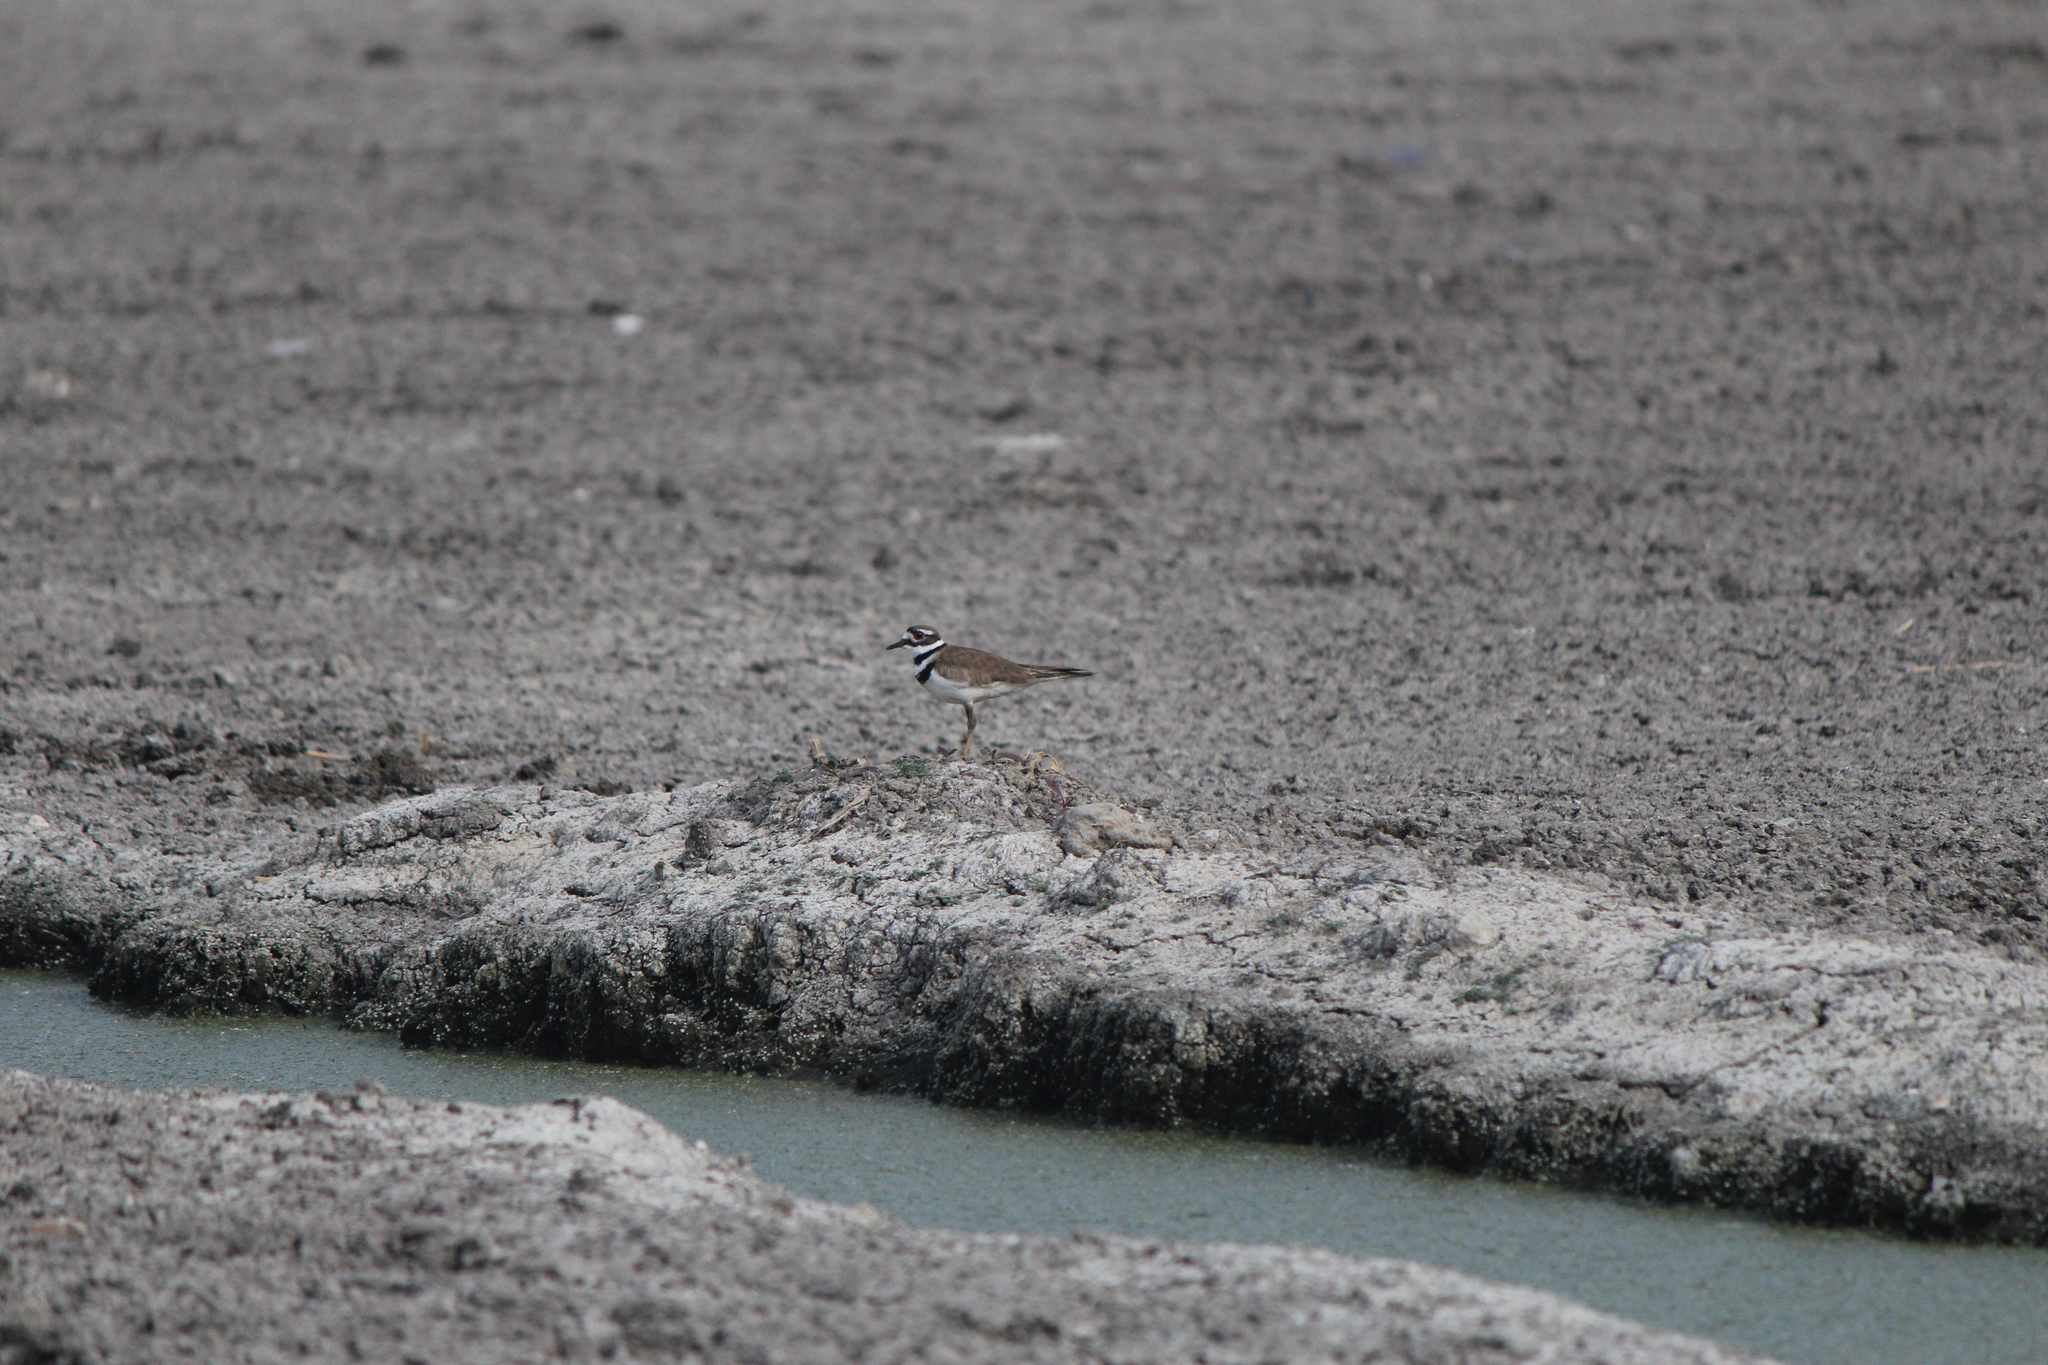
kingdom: Animalia
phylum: Chordata
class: Aves
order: Charadriiformes
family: Charadriidae
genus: Charadrius
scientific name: Charadrius vociferus
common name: Killdeer
